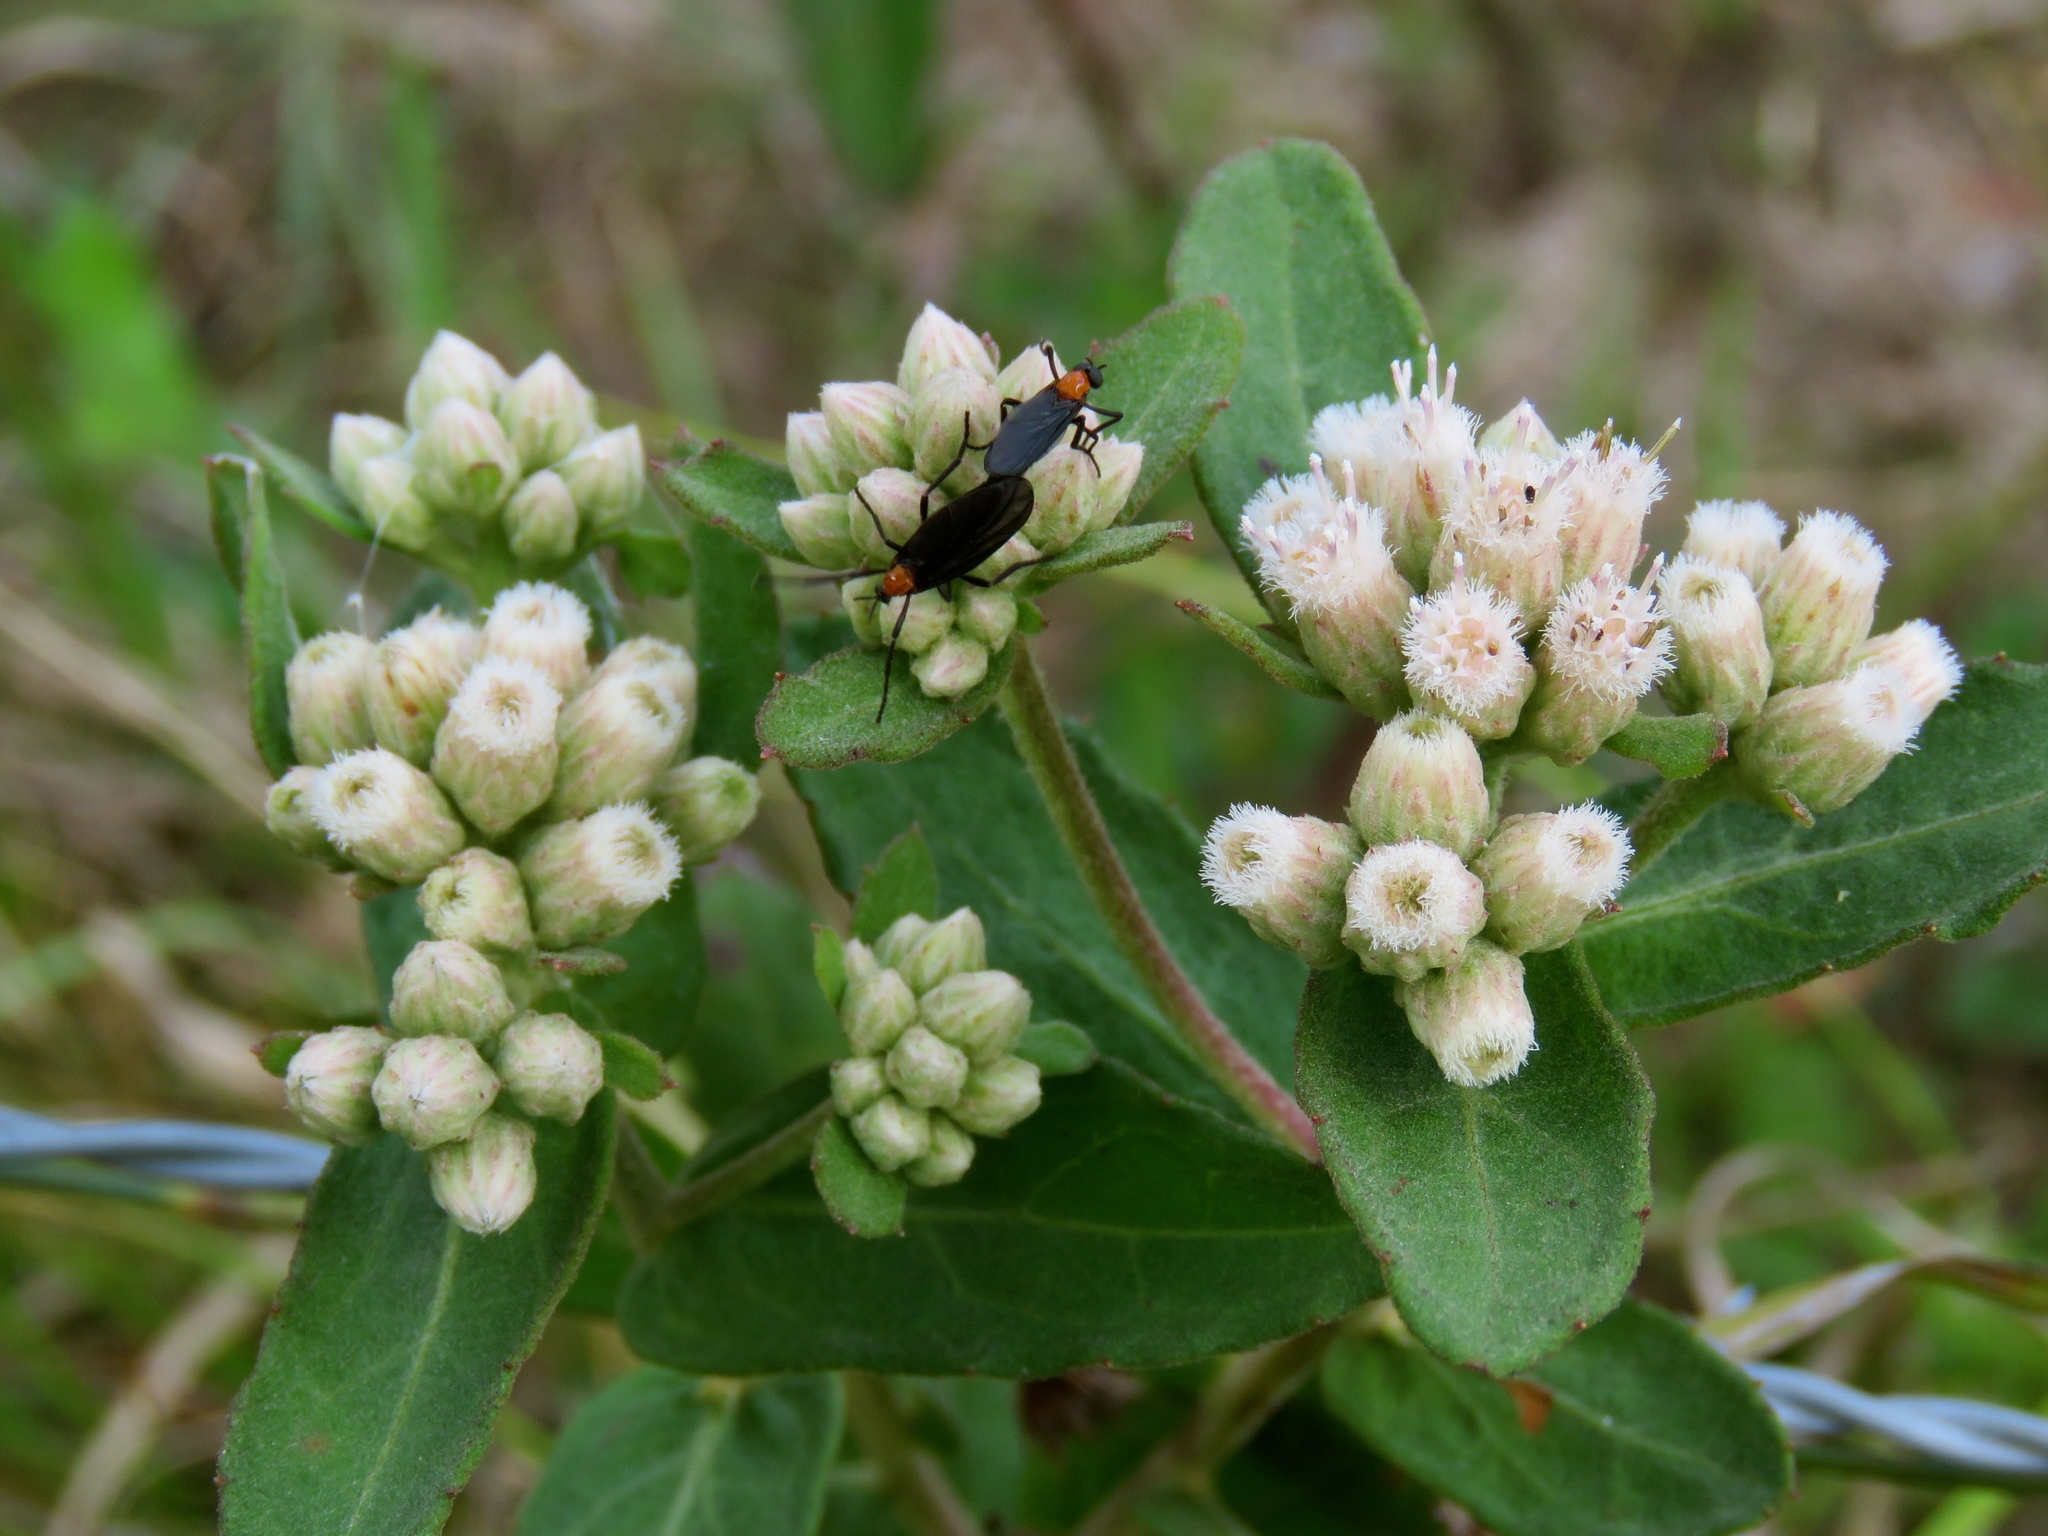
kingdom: Plantae
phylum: Tracheophyta
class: Magnoliopsida
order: Asterales
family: Asteraceae
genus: Pluchea
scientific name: Pluchea foetida
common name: Stinking camphorweed
